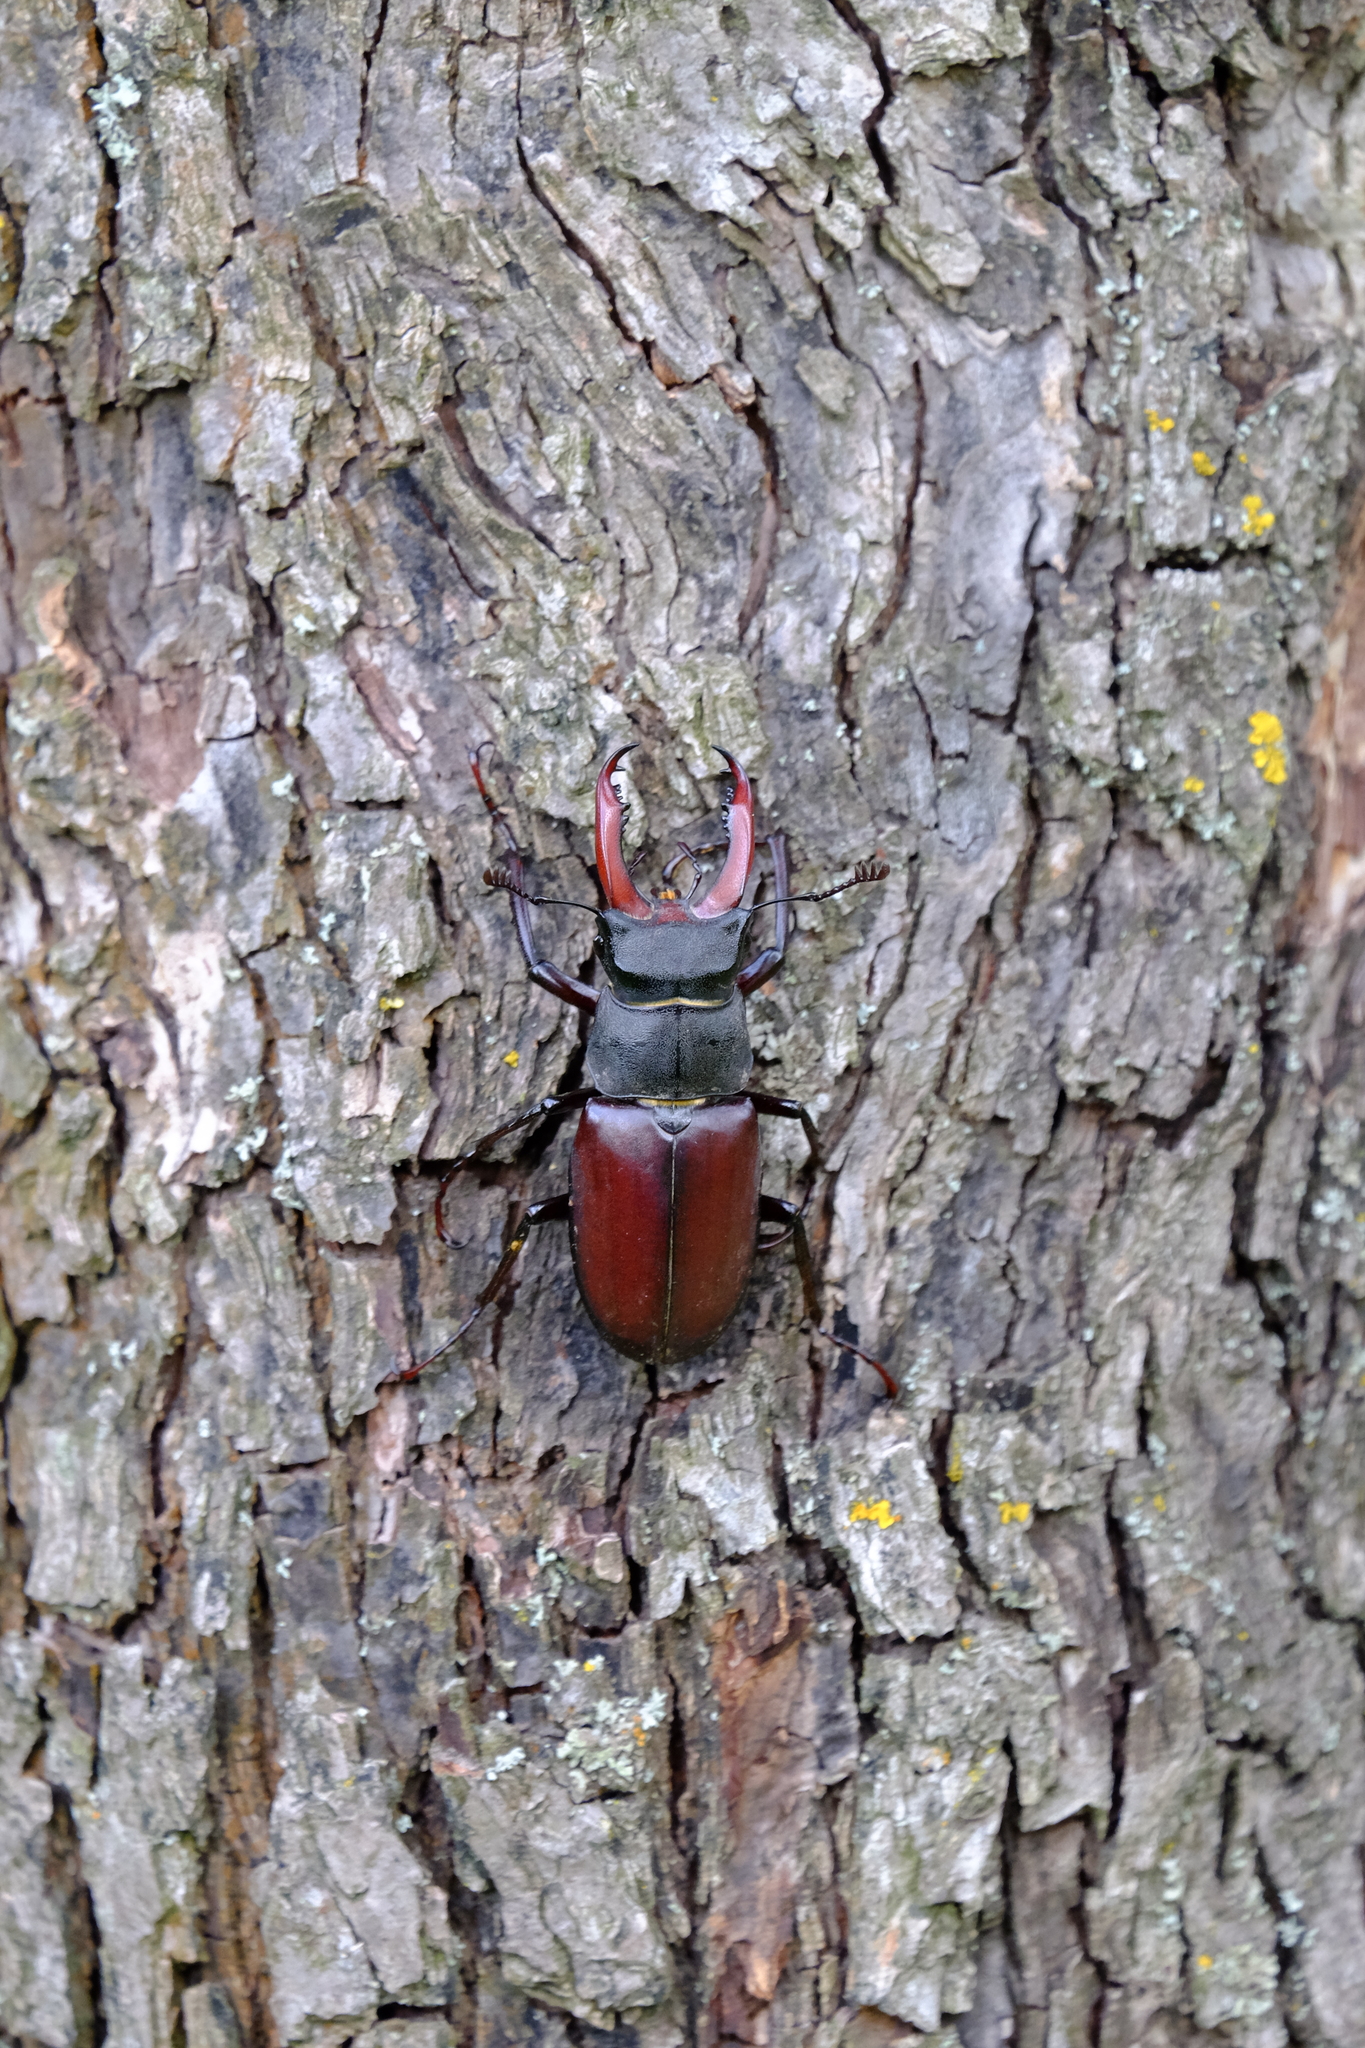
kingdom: Animalia
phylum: Arthropoda
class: Insecta
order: Coleoptera
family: Lucanidae
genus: Lucanus
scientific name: Lucanus cervus
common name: Stag beetle
